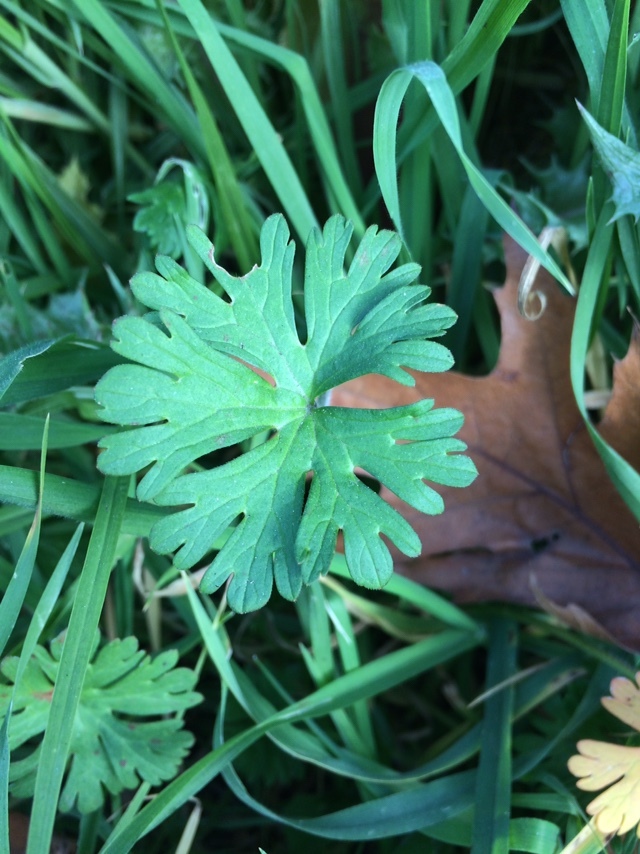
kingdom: Plantae
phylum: Tracheophyta
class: Magnoliopsida
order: Geraniales
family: Geraniaceae
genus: Geranium
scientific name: Geranium
